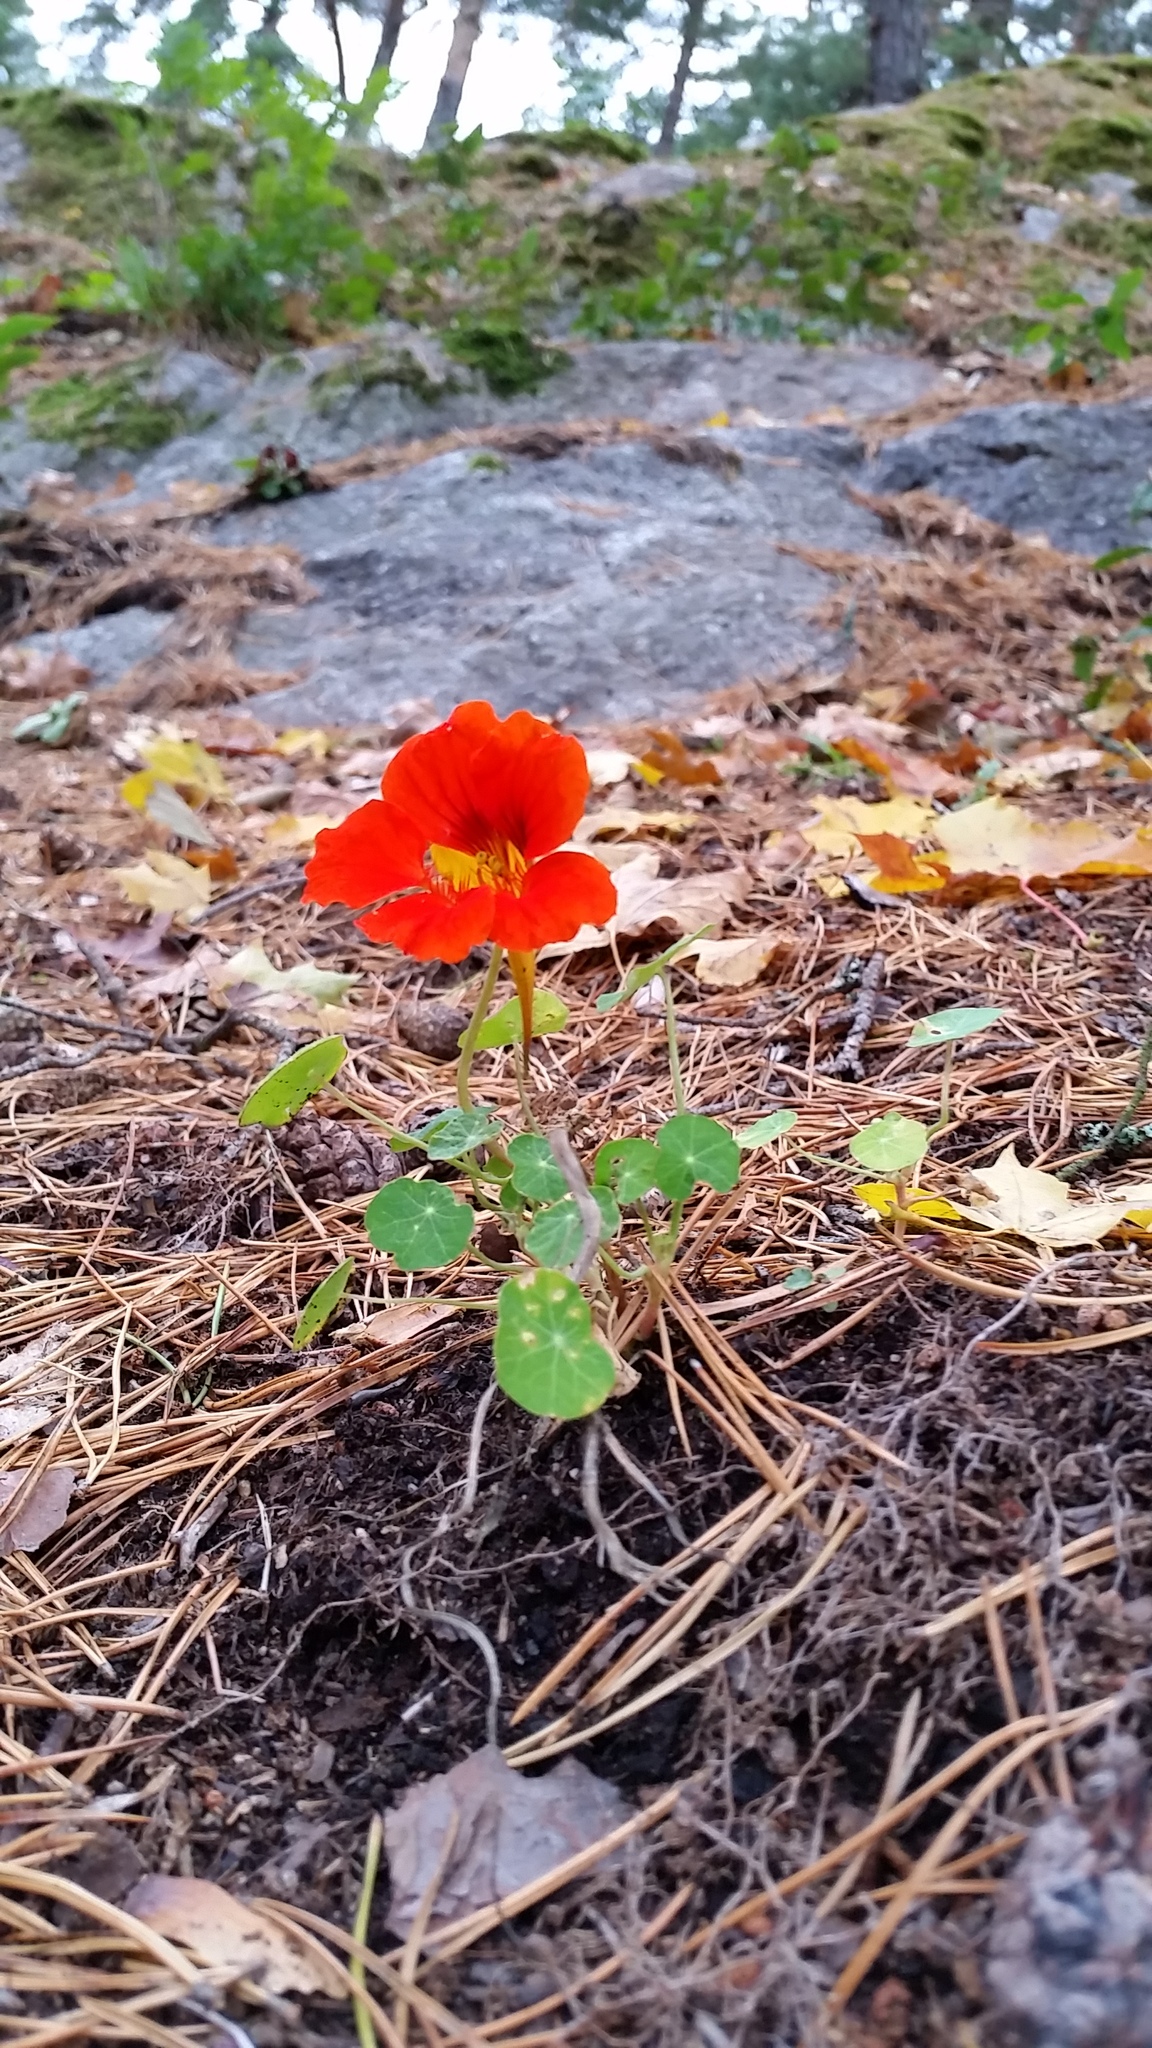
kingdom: Plantae
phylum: Tracheophyta
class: Magnoliopsida
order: Brassicales
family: Tropaeolaceae
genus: Tropaeolum
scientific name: Tropaeolum majus
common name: Nasturtium
